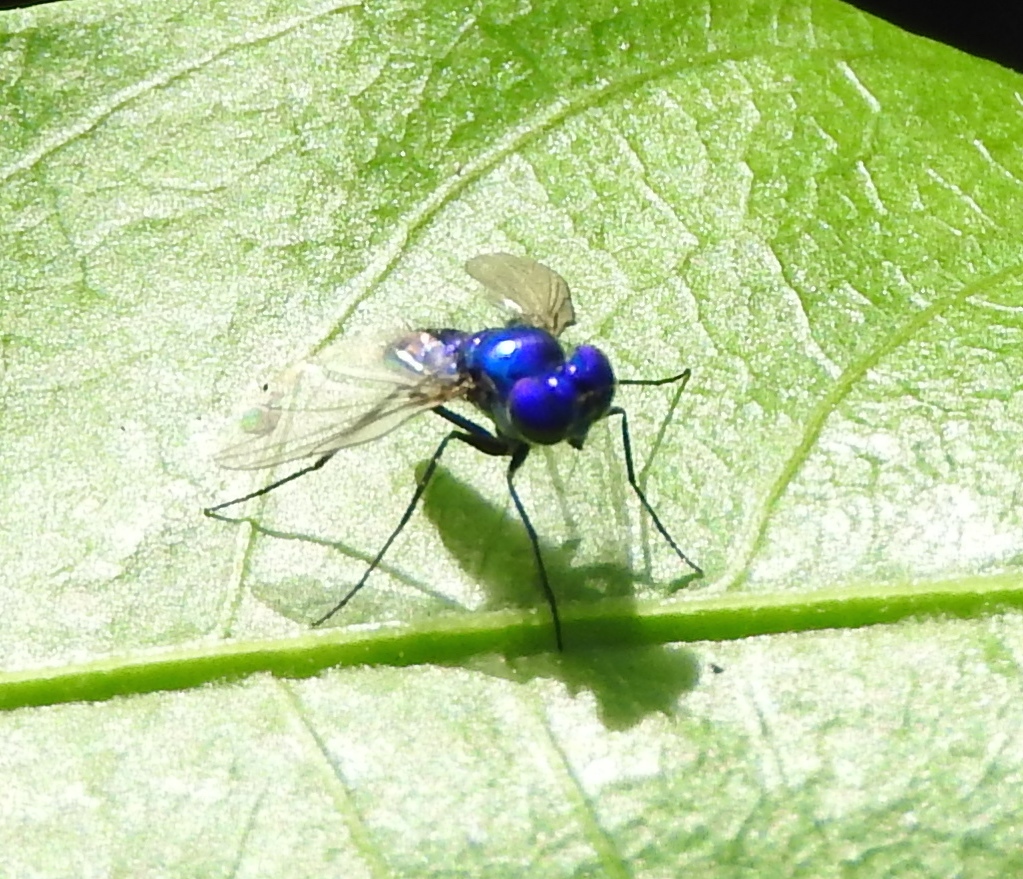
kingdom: Animalia
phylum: Arthropoda
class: Insecta
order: Diptera
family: Dolichopodidae
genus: Condylostylus
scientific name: Condylostylus mundus
